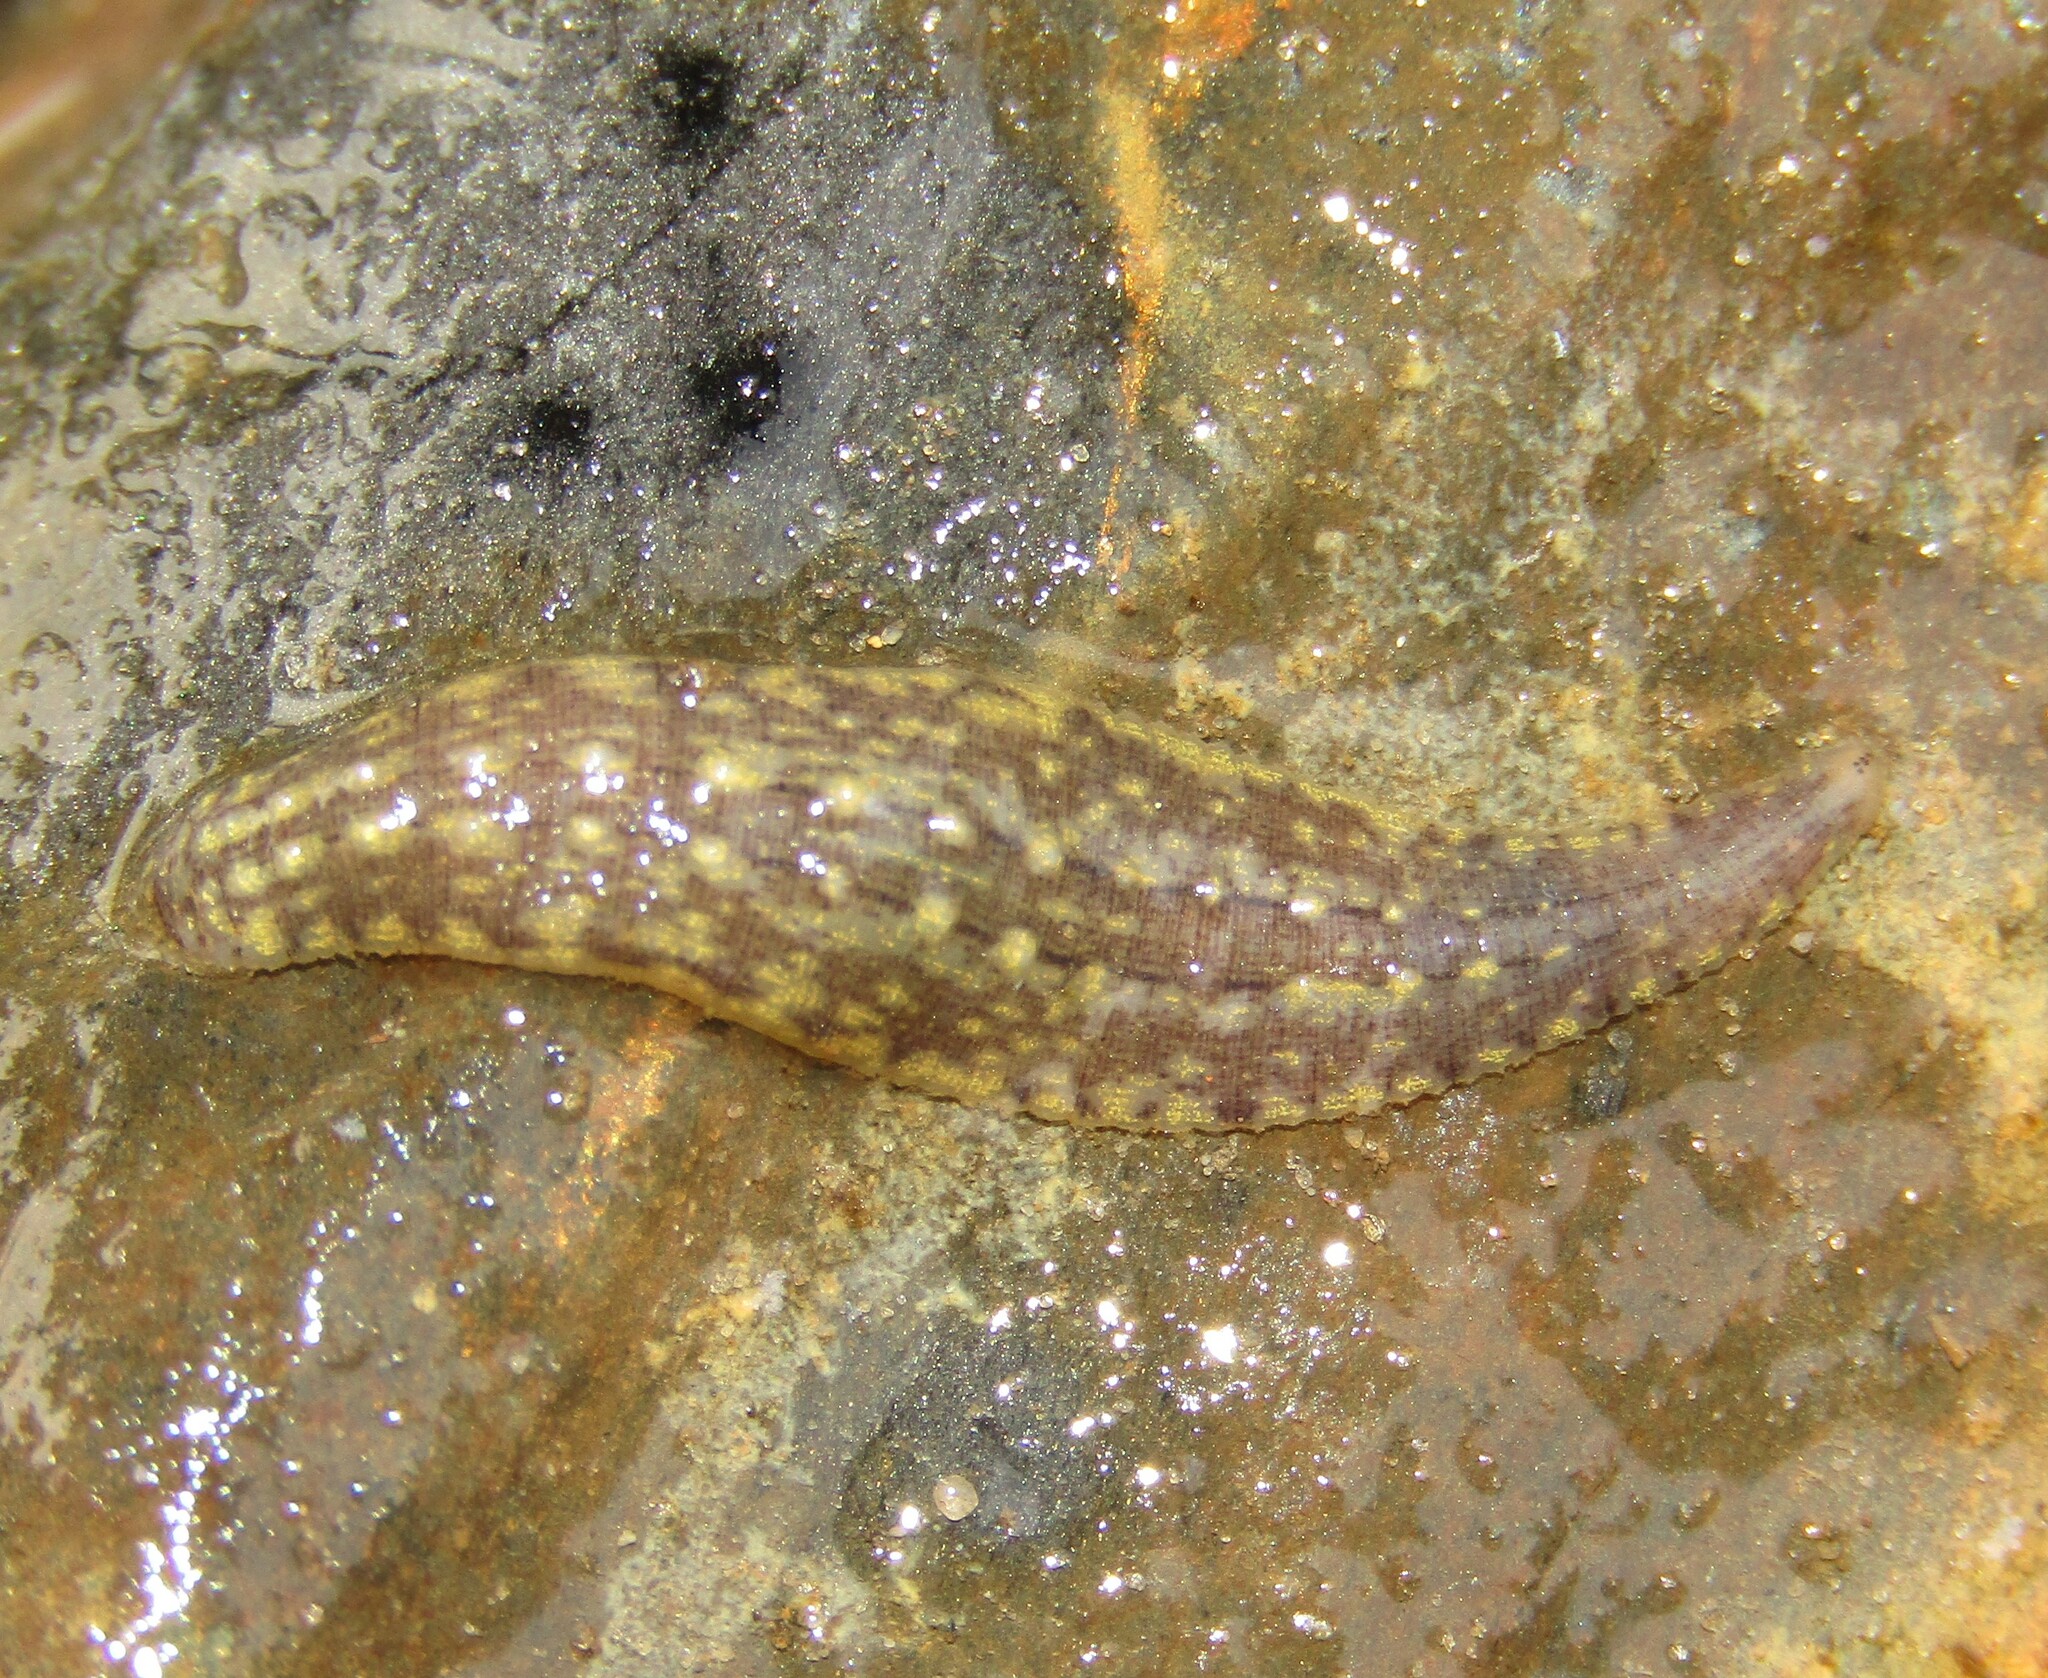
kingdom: Animalia
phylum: Annelida
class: Clitellata
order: Rhynchobdellida
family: Glossiphoniidae
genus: Glossiphonia
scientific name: Glossiphonia complanata
